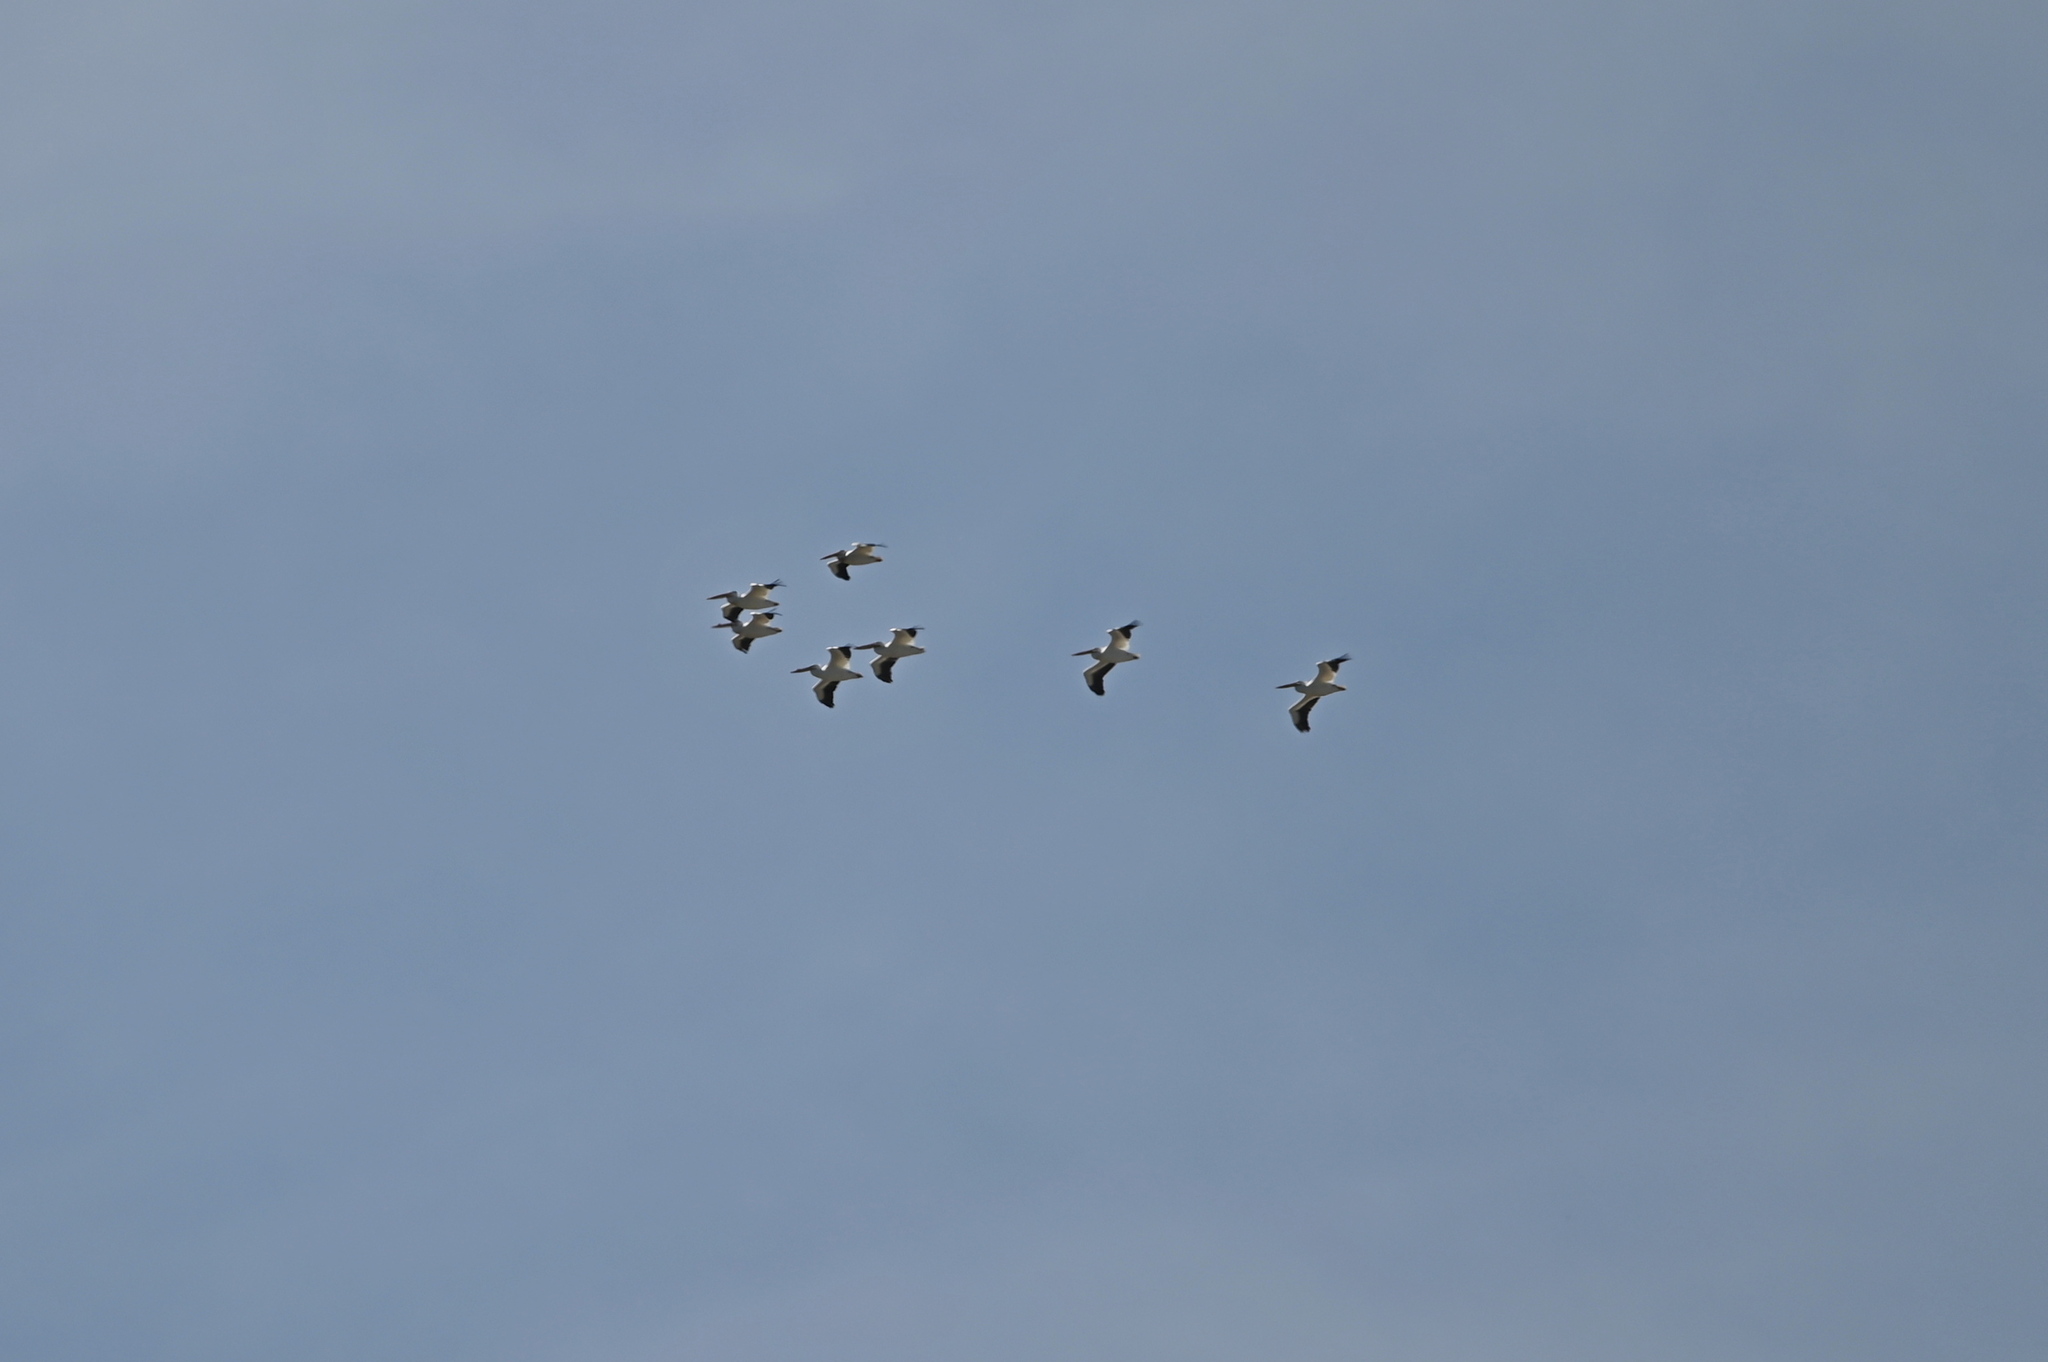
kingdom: Animalia
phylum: Chordata
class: Aves
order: Pelecaniformes
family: Pelecanidae
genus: Pelecanus
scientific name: Pelecanus erythrorhynchos
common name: American white pelican
